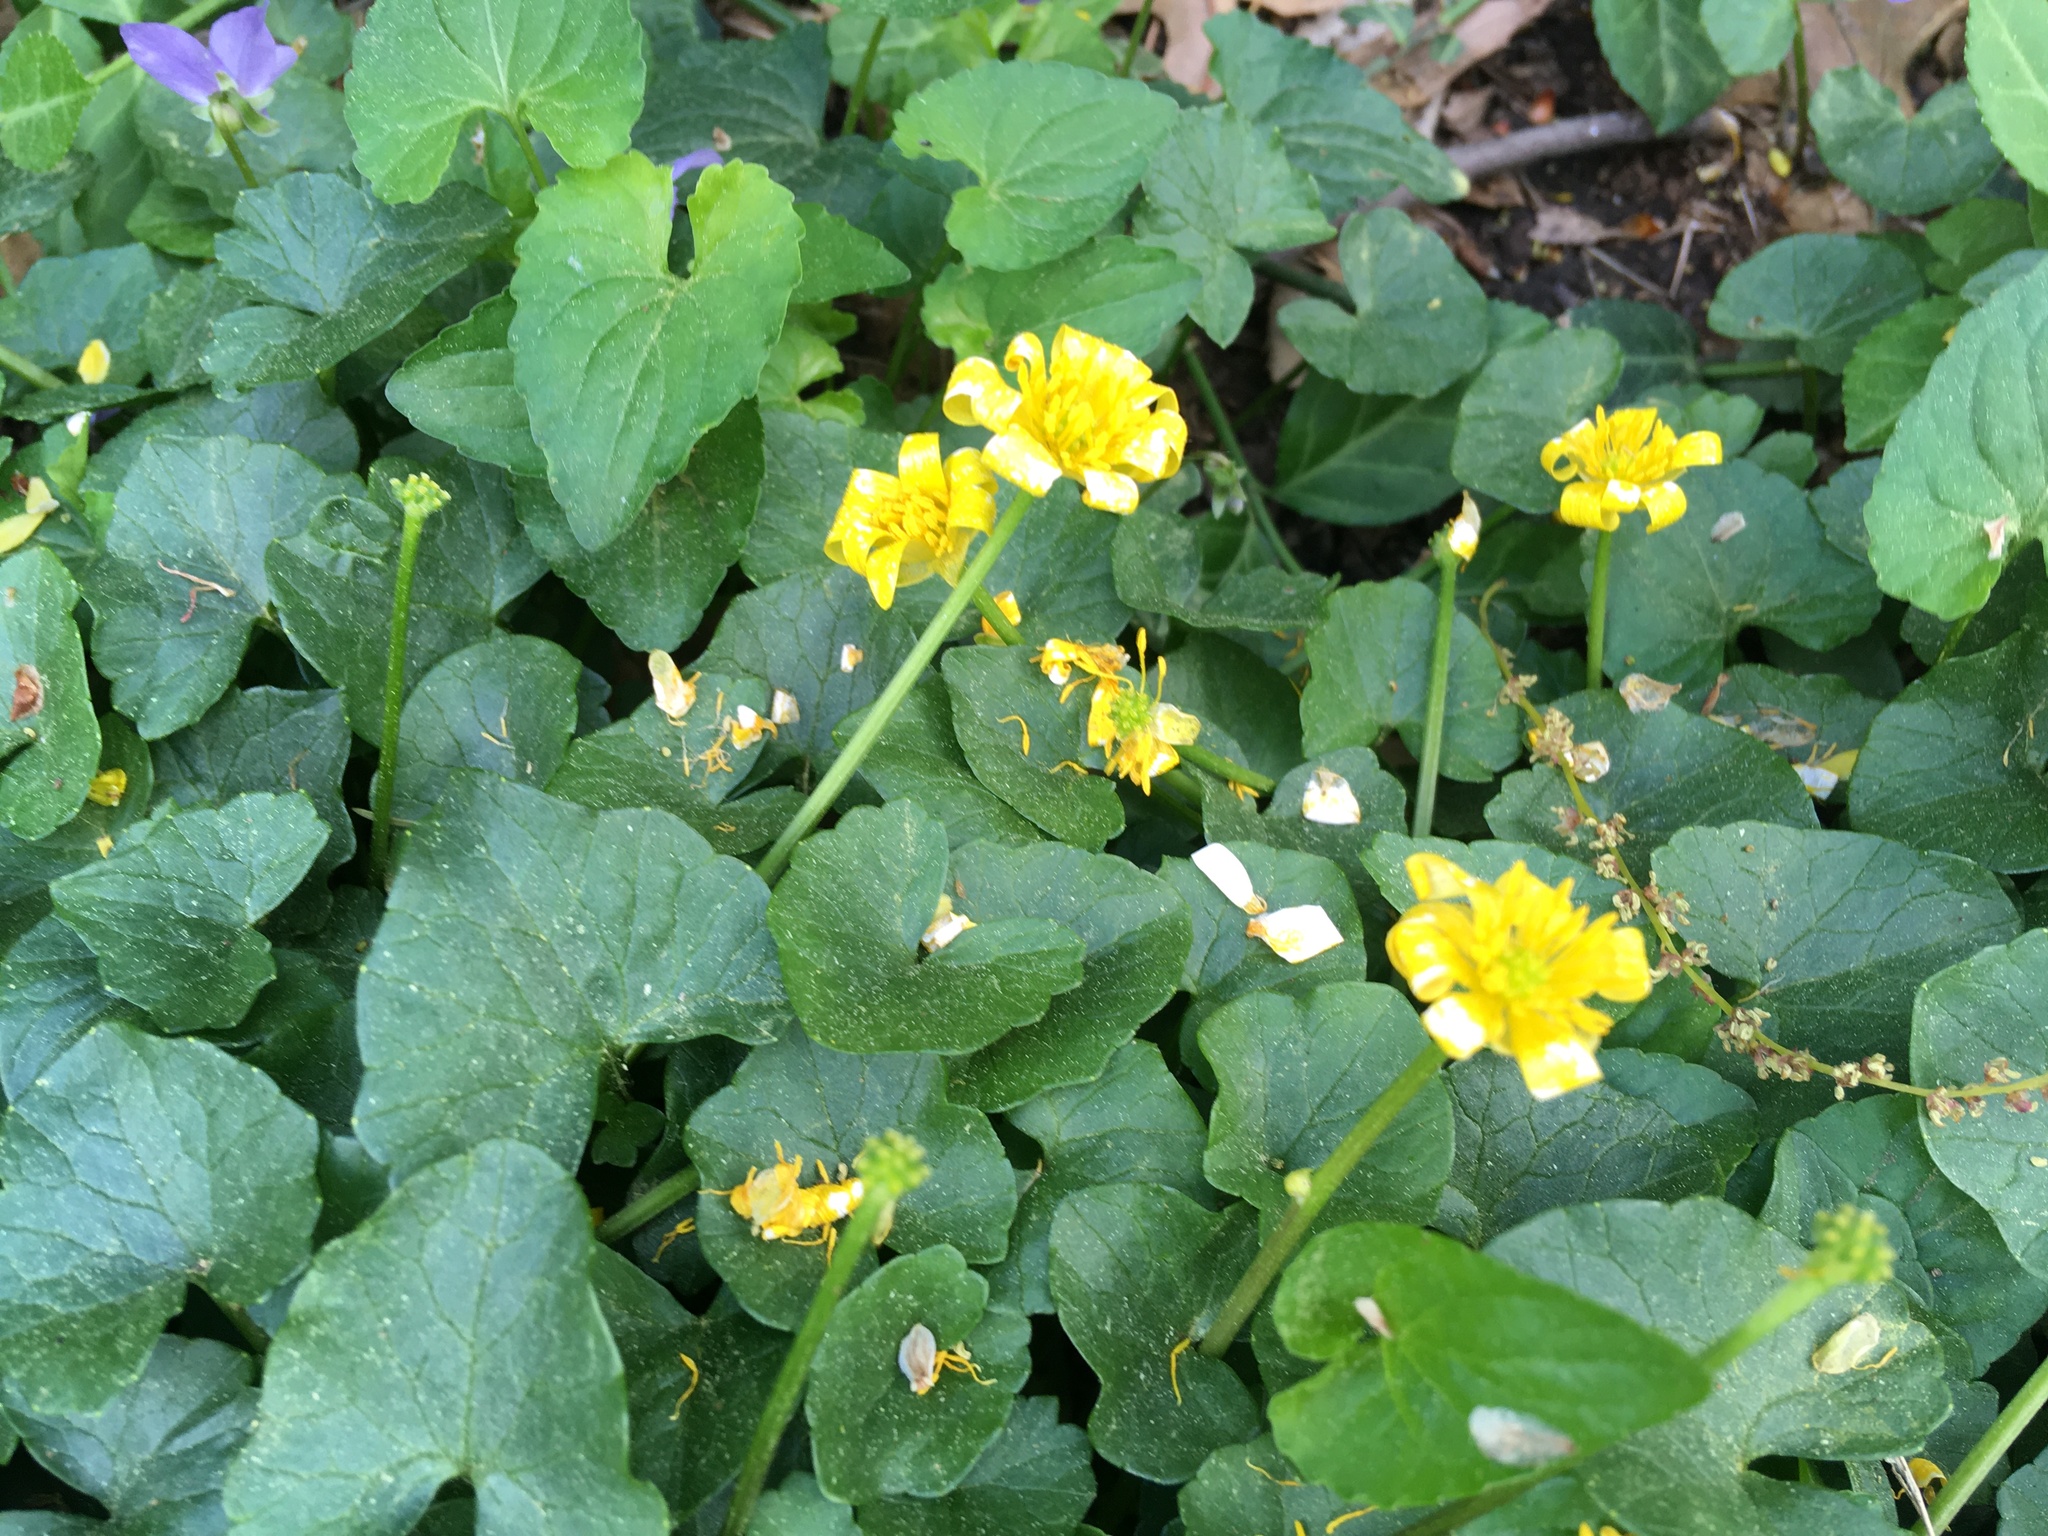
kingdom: Plantae
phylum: Tracheophyta
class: Magnoliopsida
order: Ranunculales
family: Ranunculaceae
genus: Ficaria
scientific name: Ficaria verna
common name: Lesser celandine
